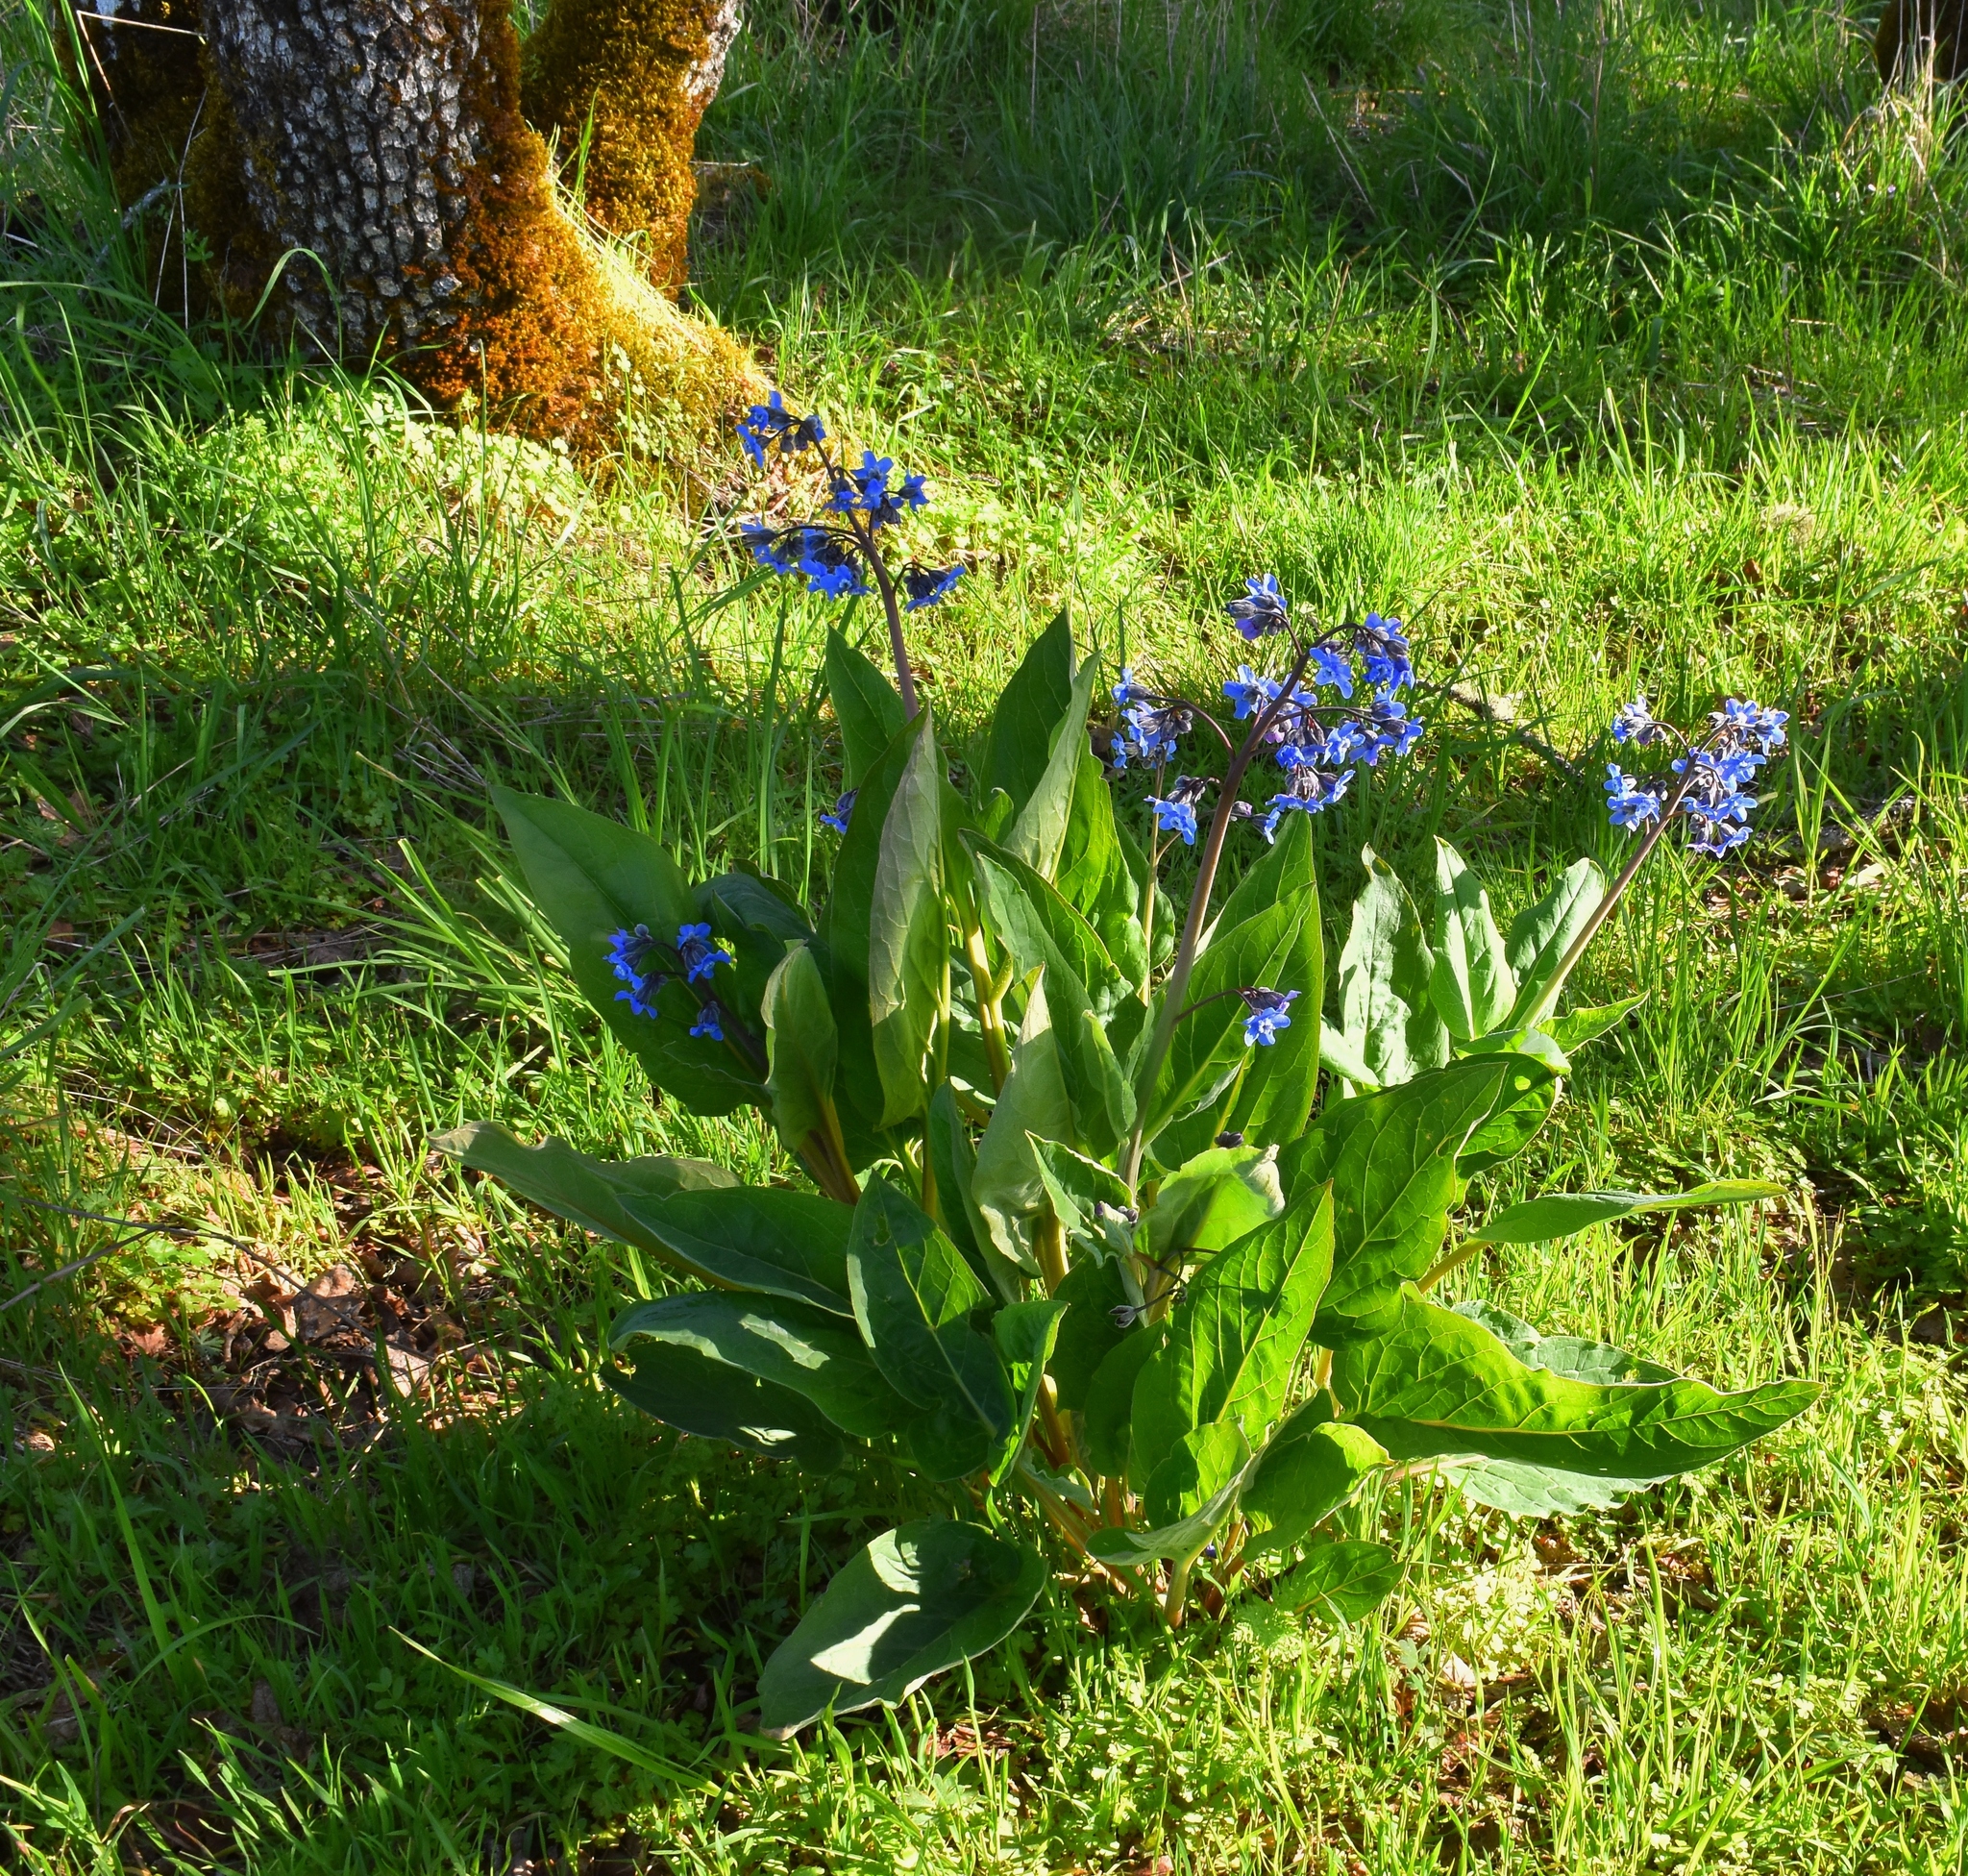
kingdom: Plantae
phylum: Tracheophyta
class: Magnoliopsida
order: Boraginales
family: Boraginaceae
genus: Adelinia
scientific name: Adelinia grande
